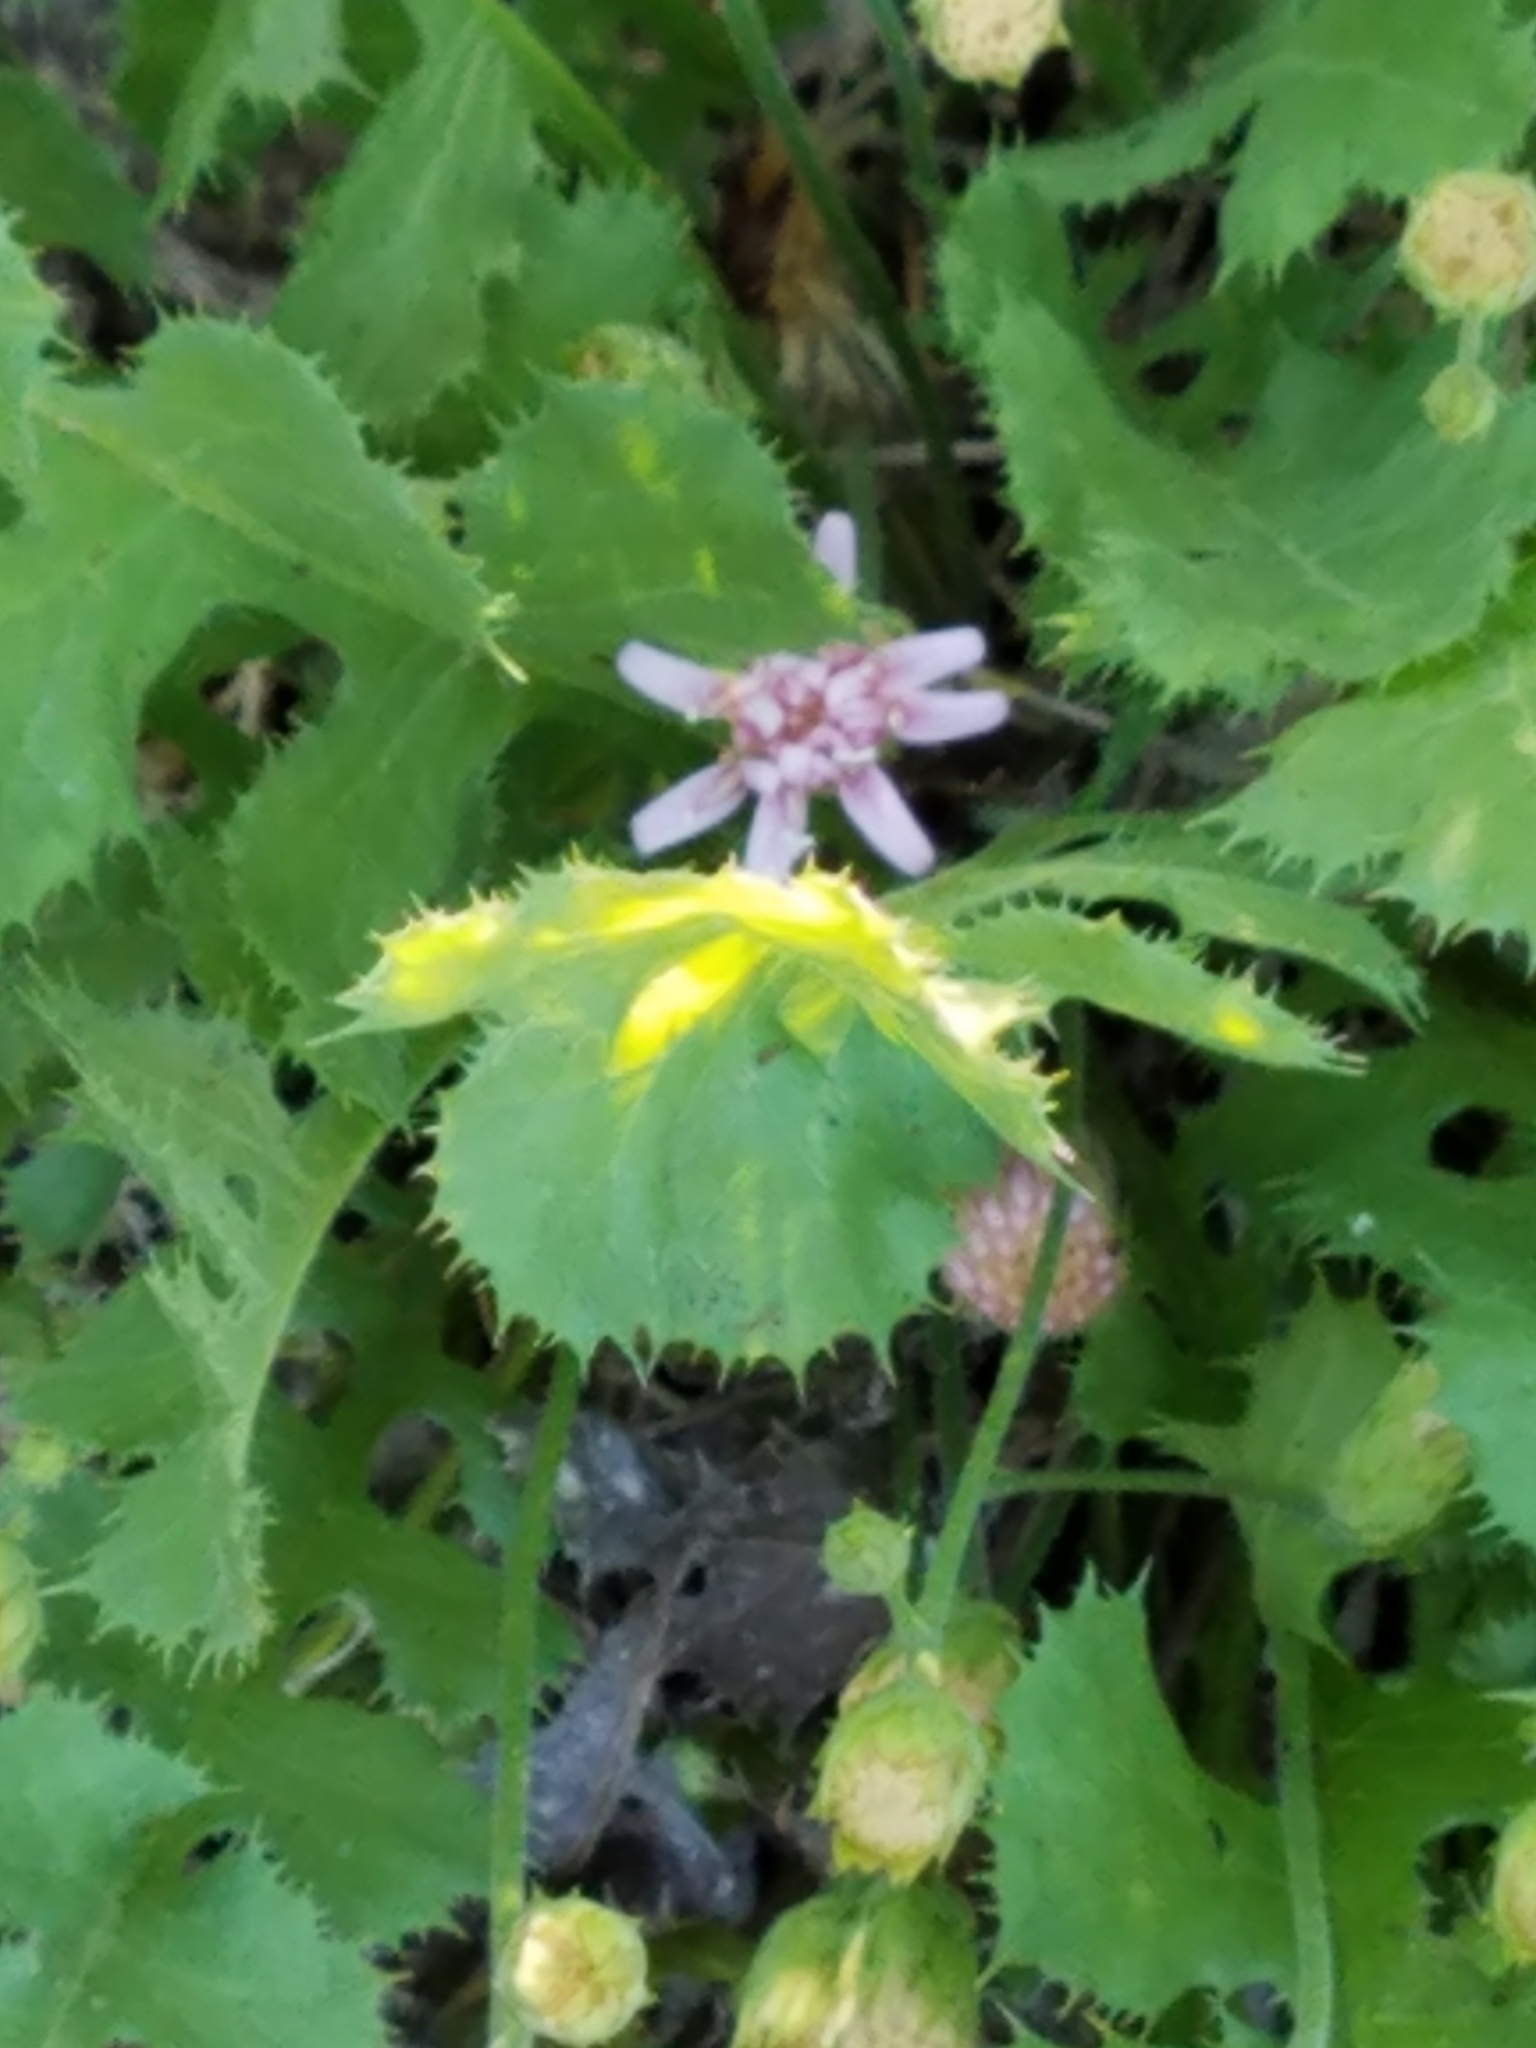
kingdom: Plantae
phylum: Tracheophyta
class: Magnoliopsida
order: Asterales
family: Asteraceae
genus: Acourtia
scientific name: Acourtia runcinata
